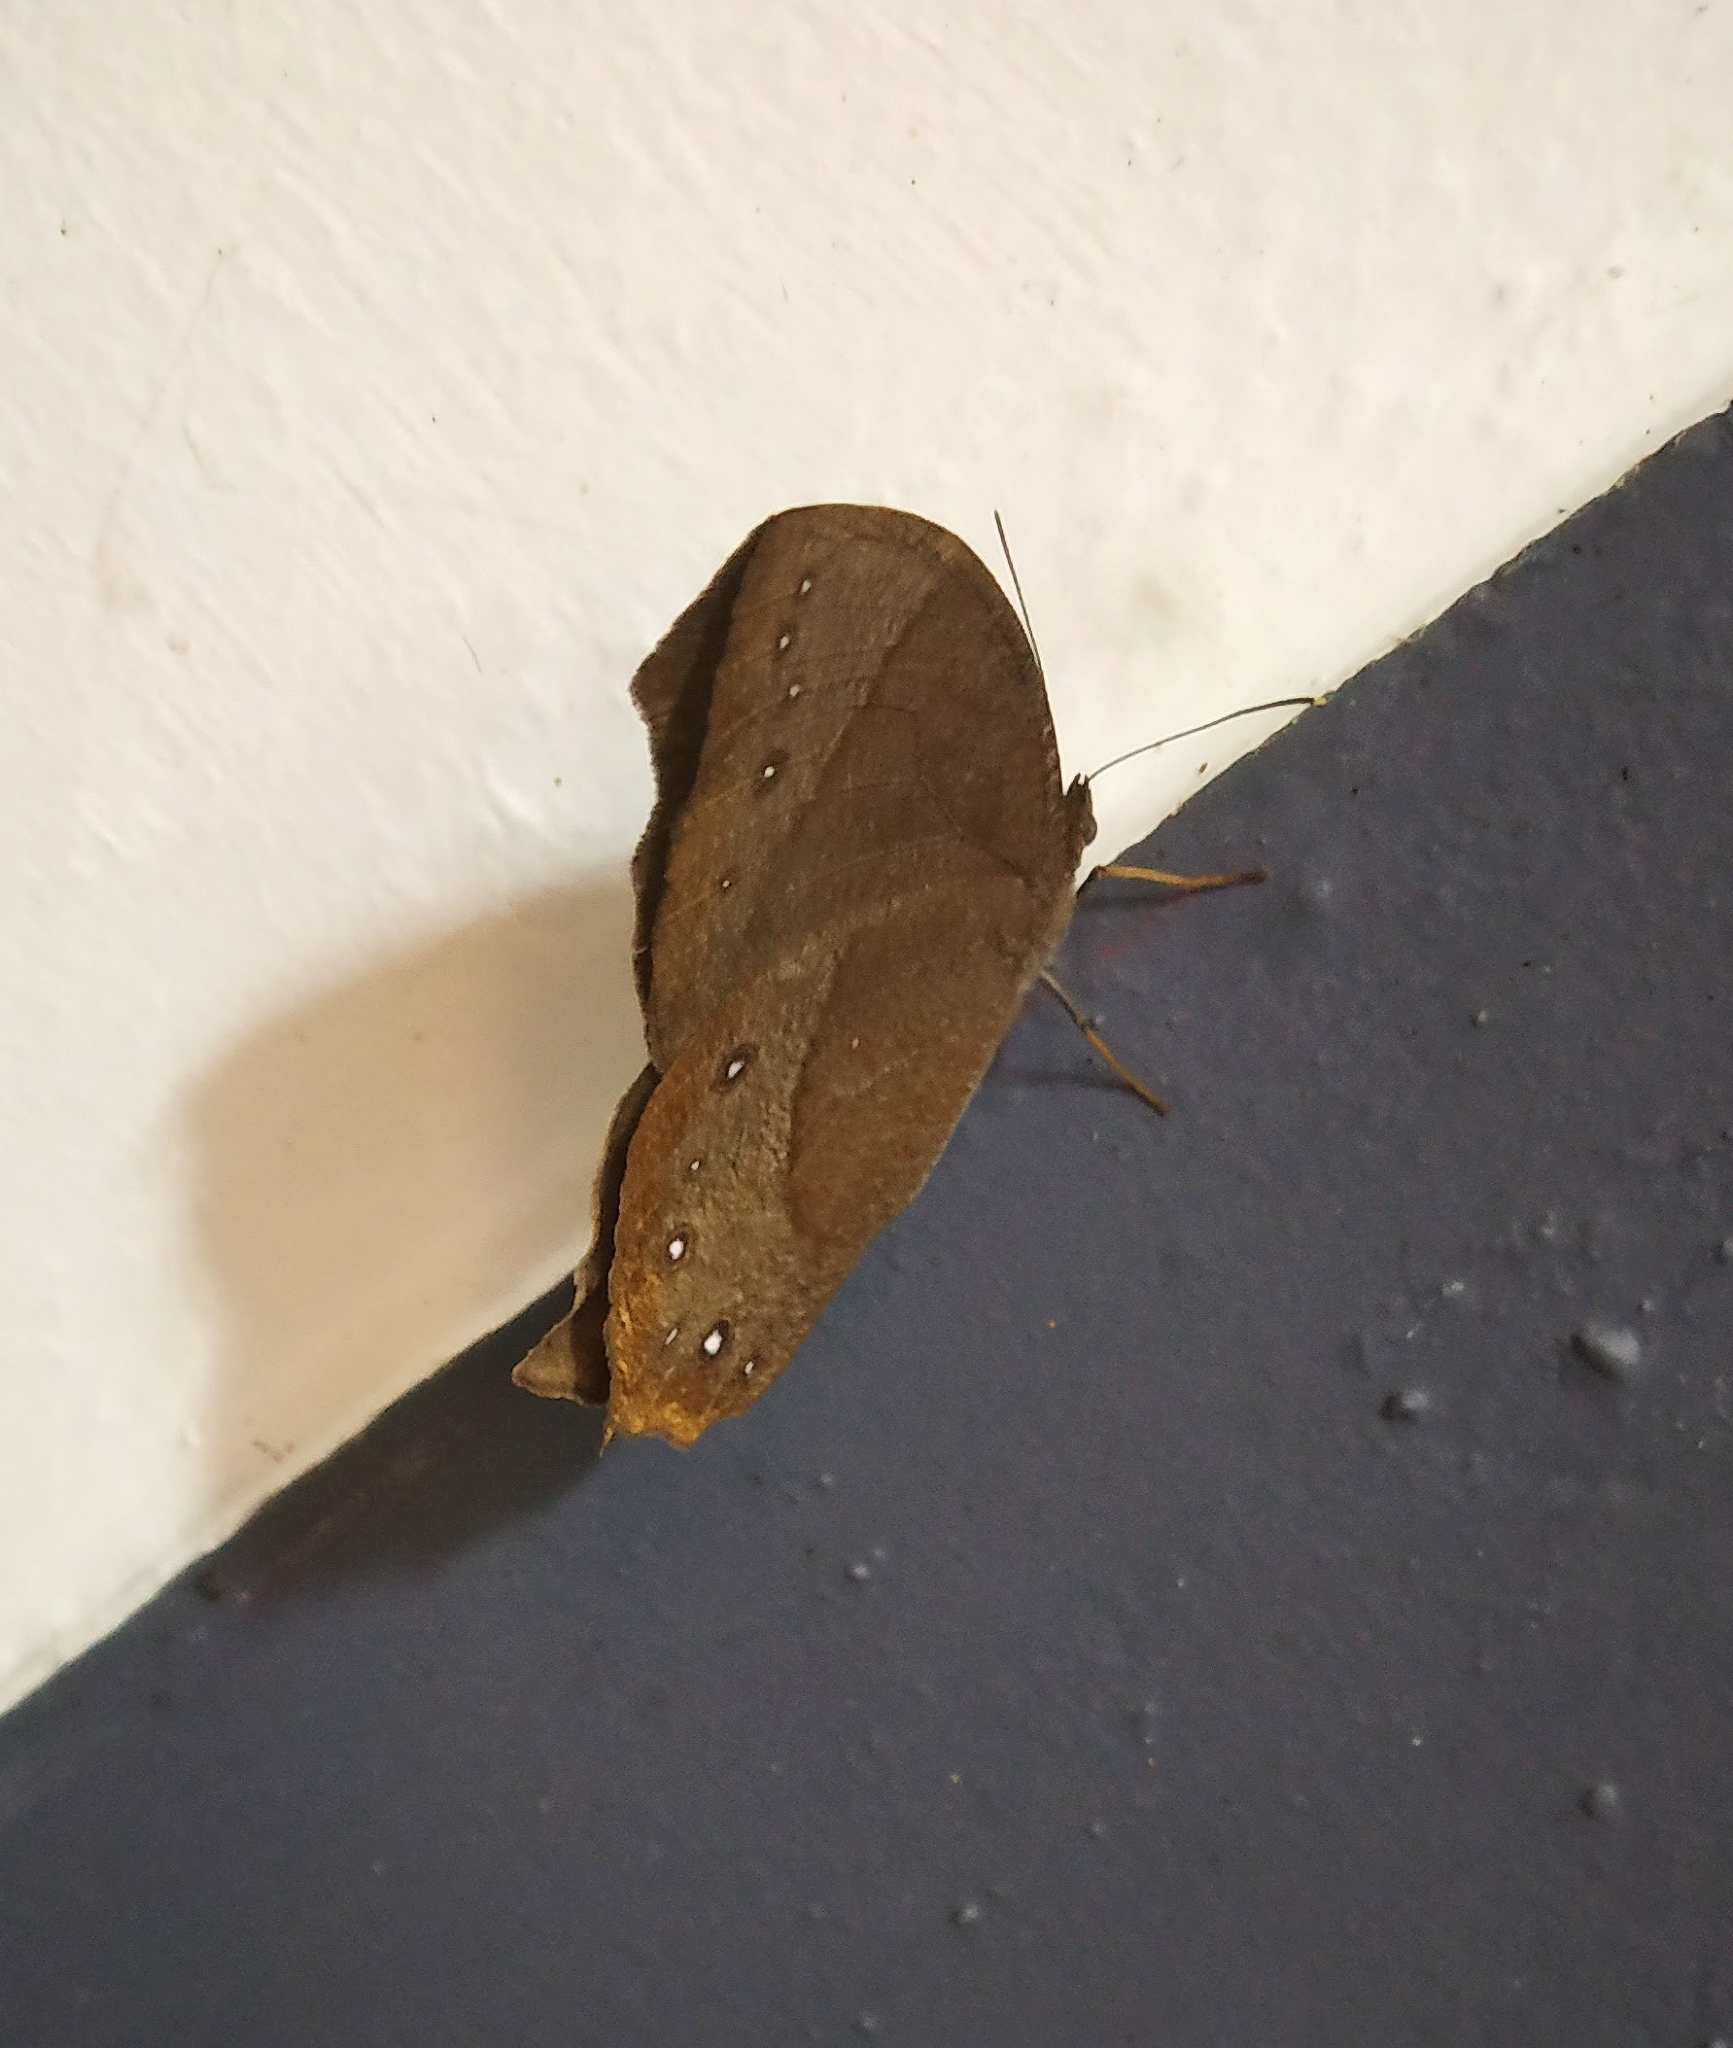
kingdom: Animalia
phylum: Arthropoda
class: Insecta
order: Lepidoptera
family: Nymphalidae
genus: Melanitis
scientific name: Melanitis phedima
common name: Dark evening brown
